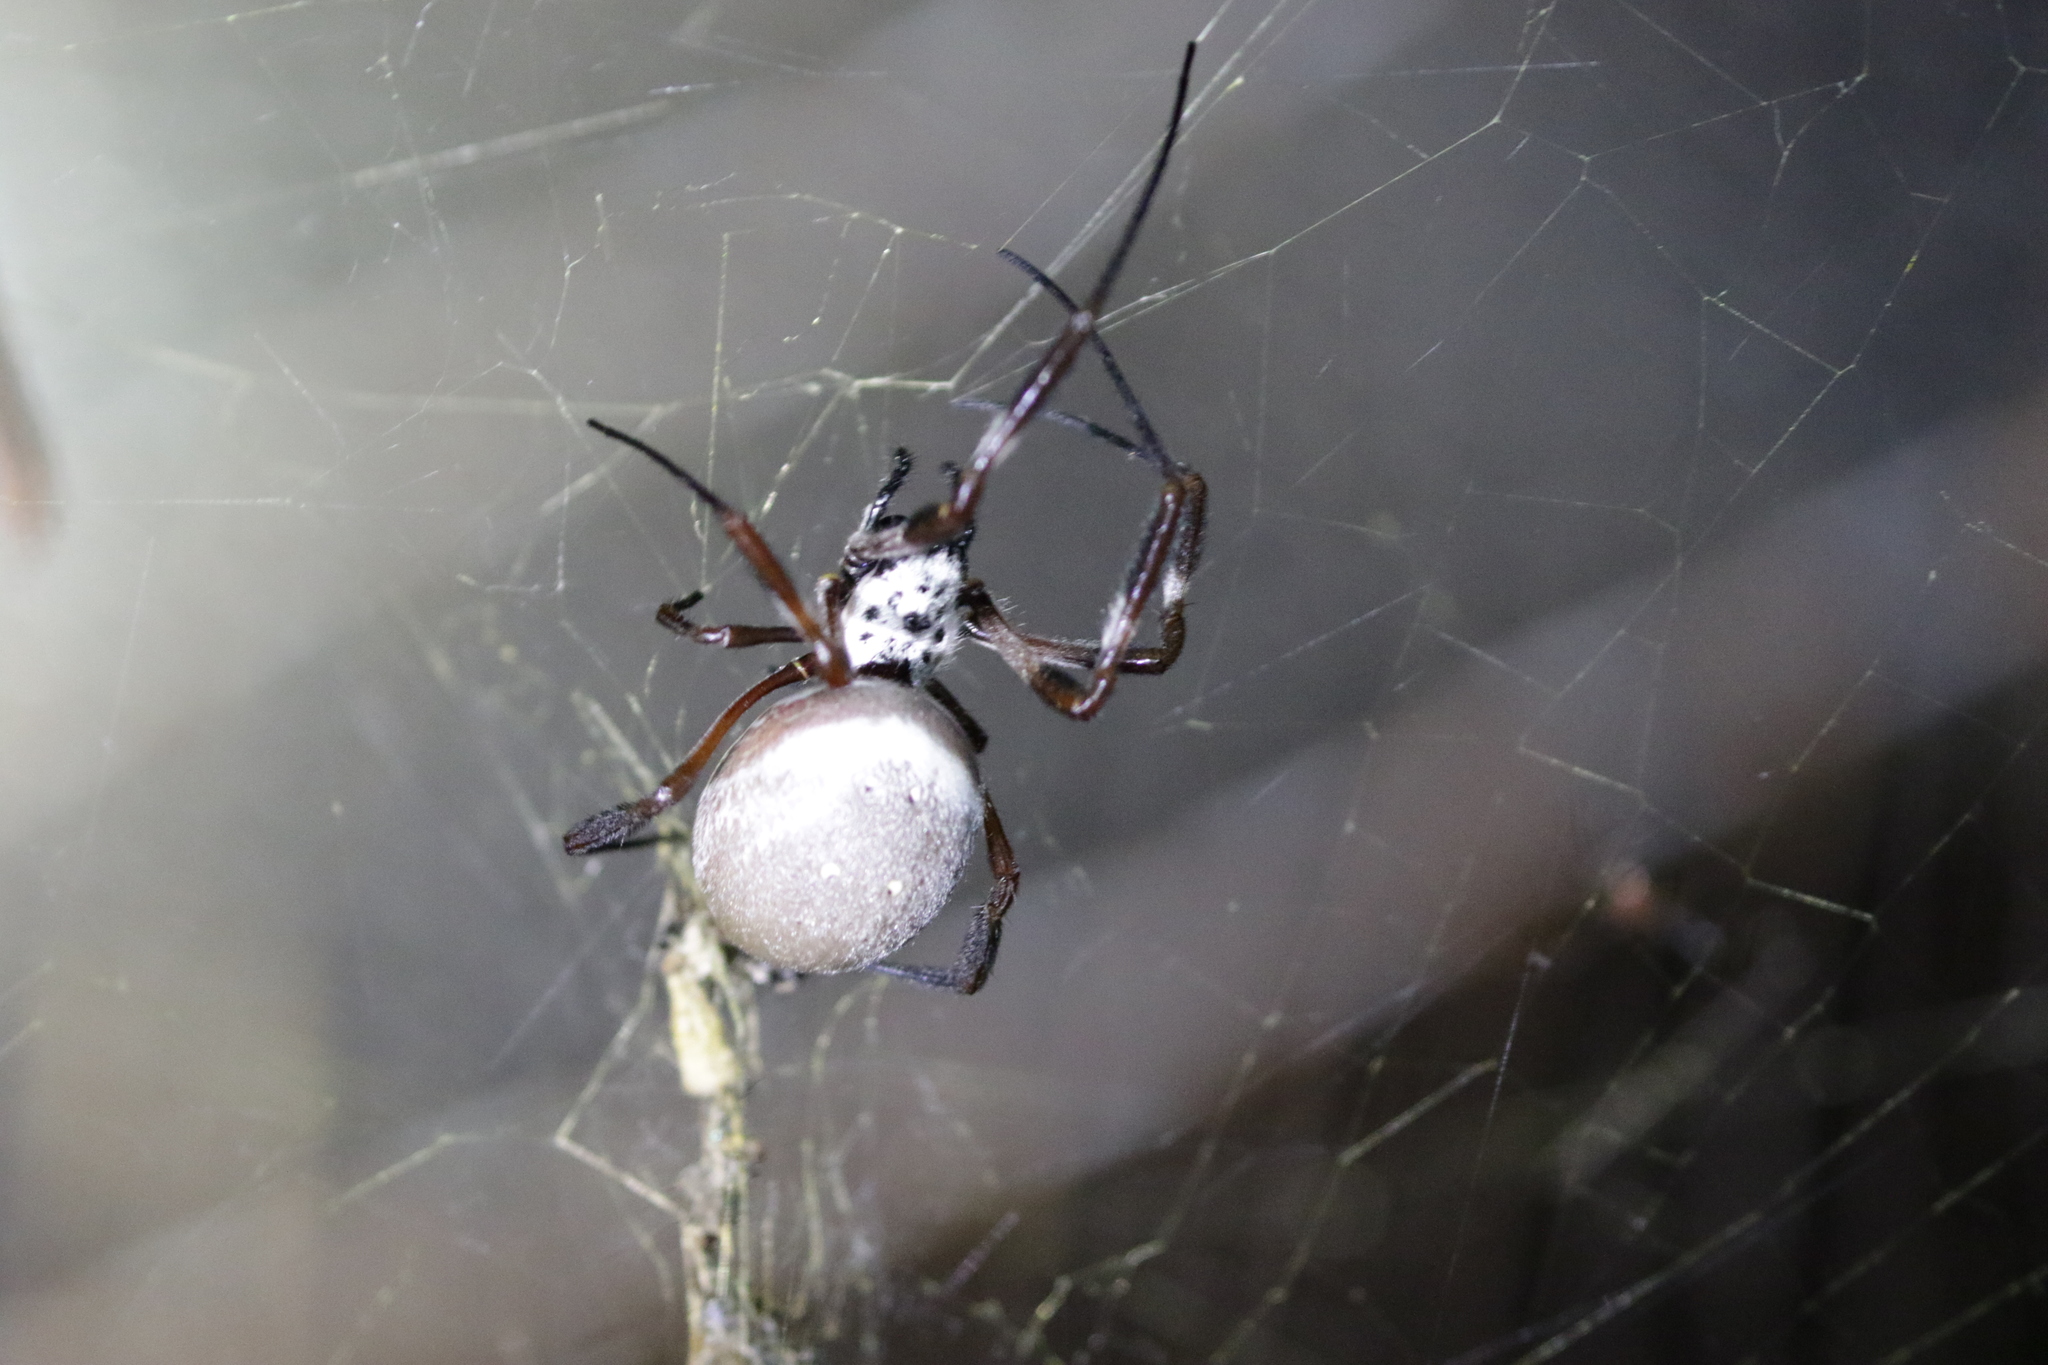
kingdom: Animalia
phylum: Arthropoda
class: Arachnida
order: Araneae
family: Araneidae
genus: Trichonephila
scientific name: Trichonephila edulis
